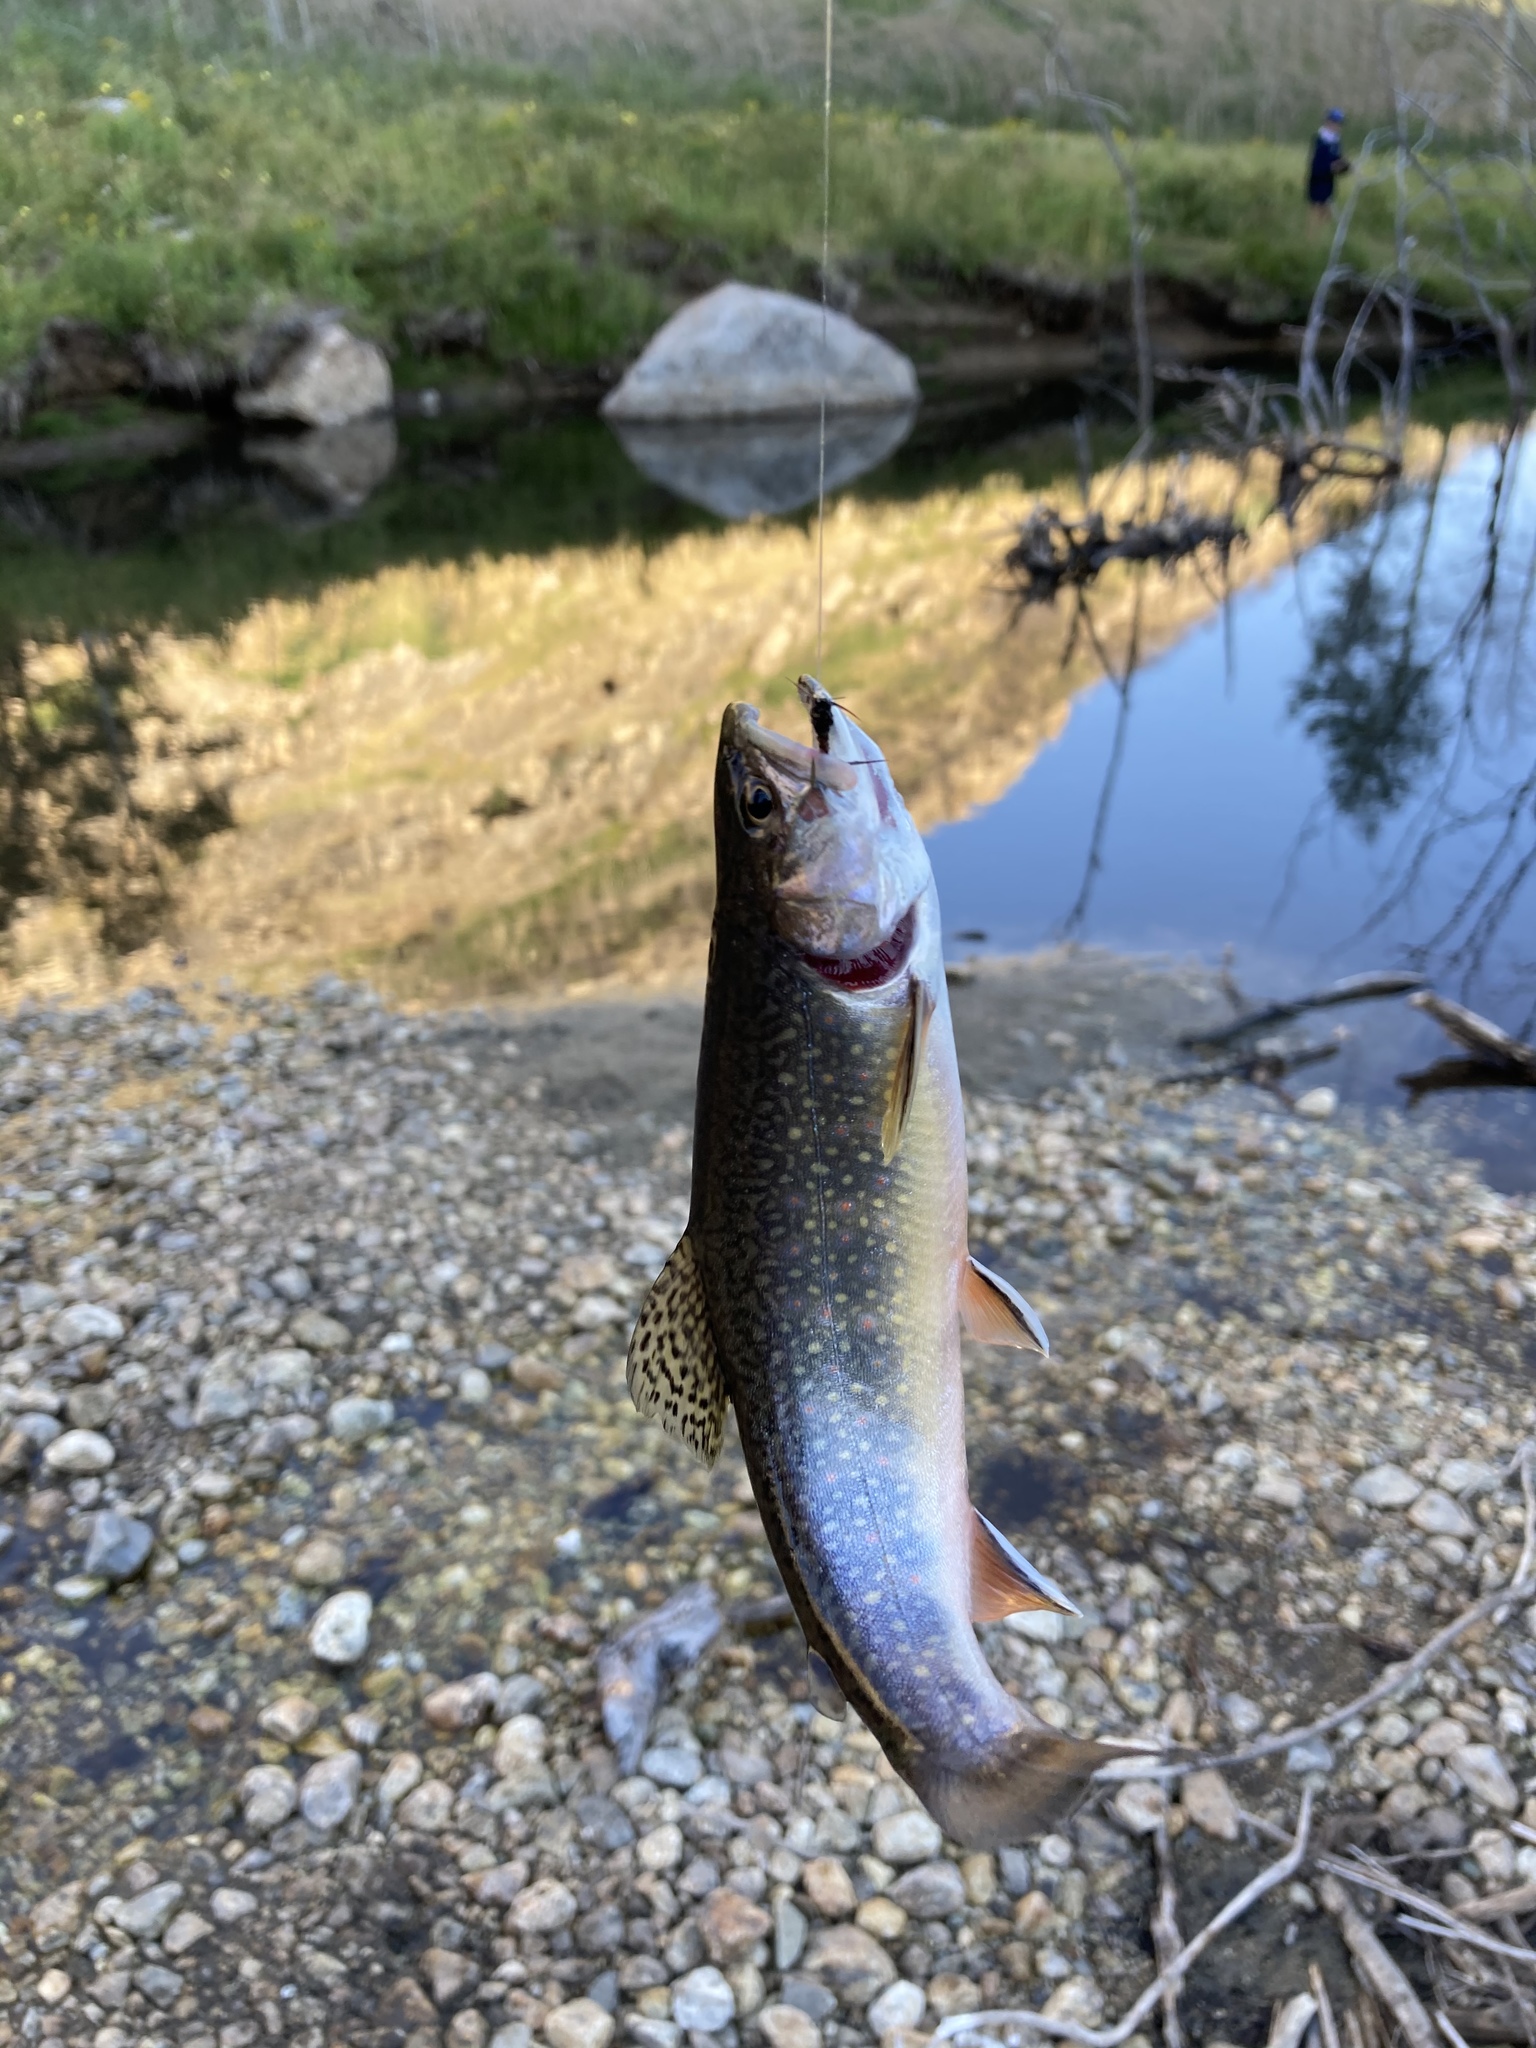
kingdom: Animalia
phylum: Chordata
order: Salmoniformes
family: Salmonidae
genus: Salvelinus
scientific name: Salvelinus fontinalis
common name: Brook trout
